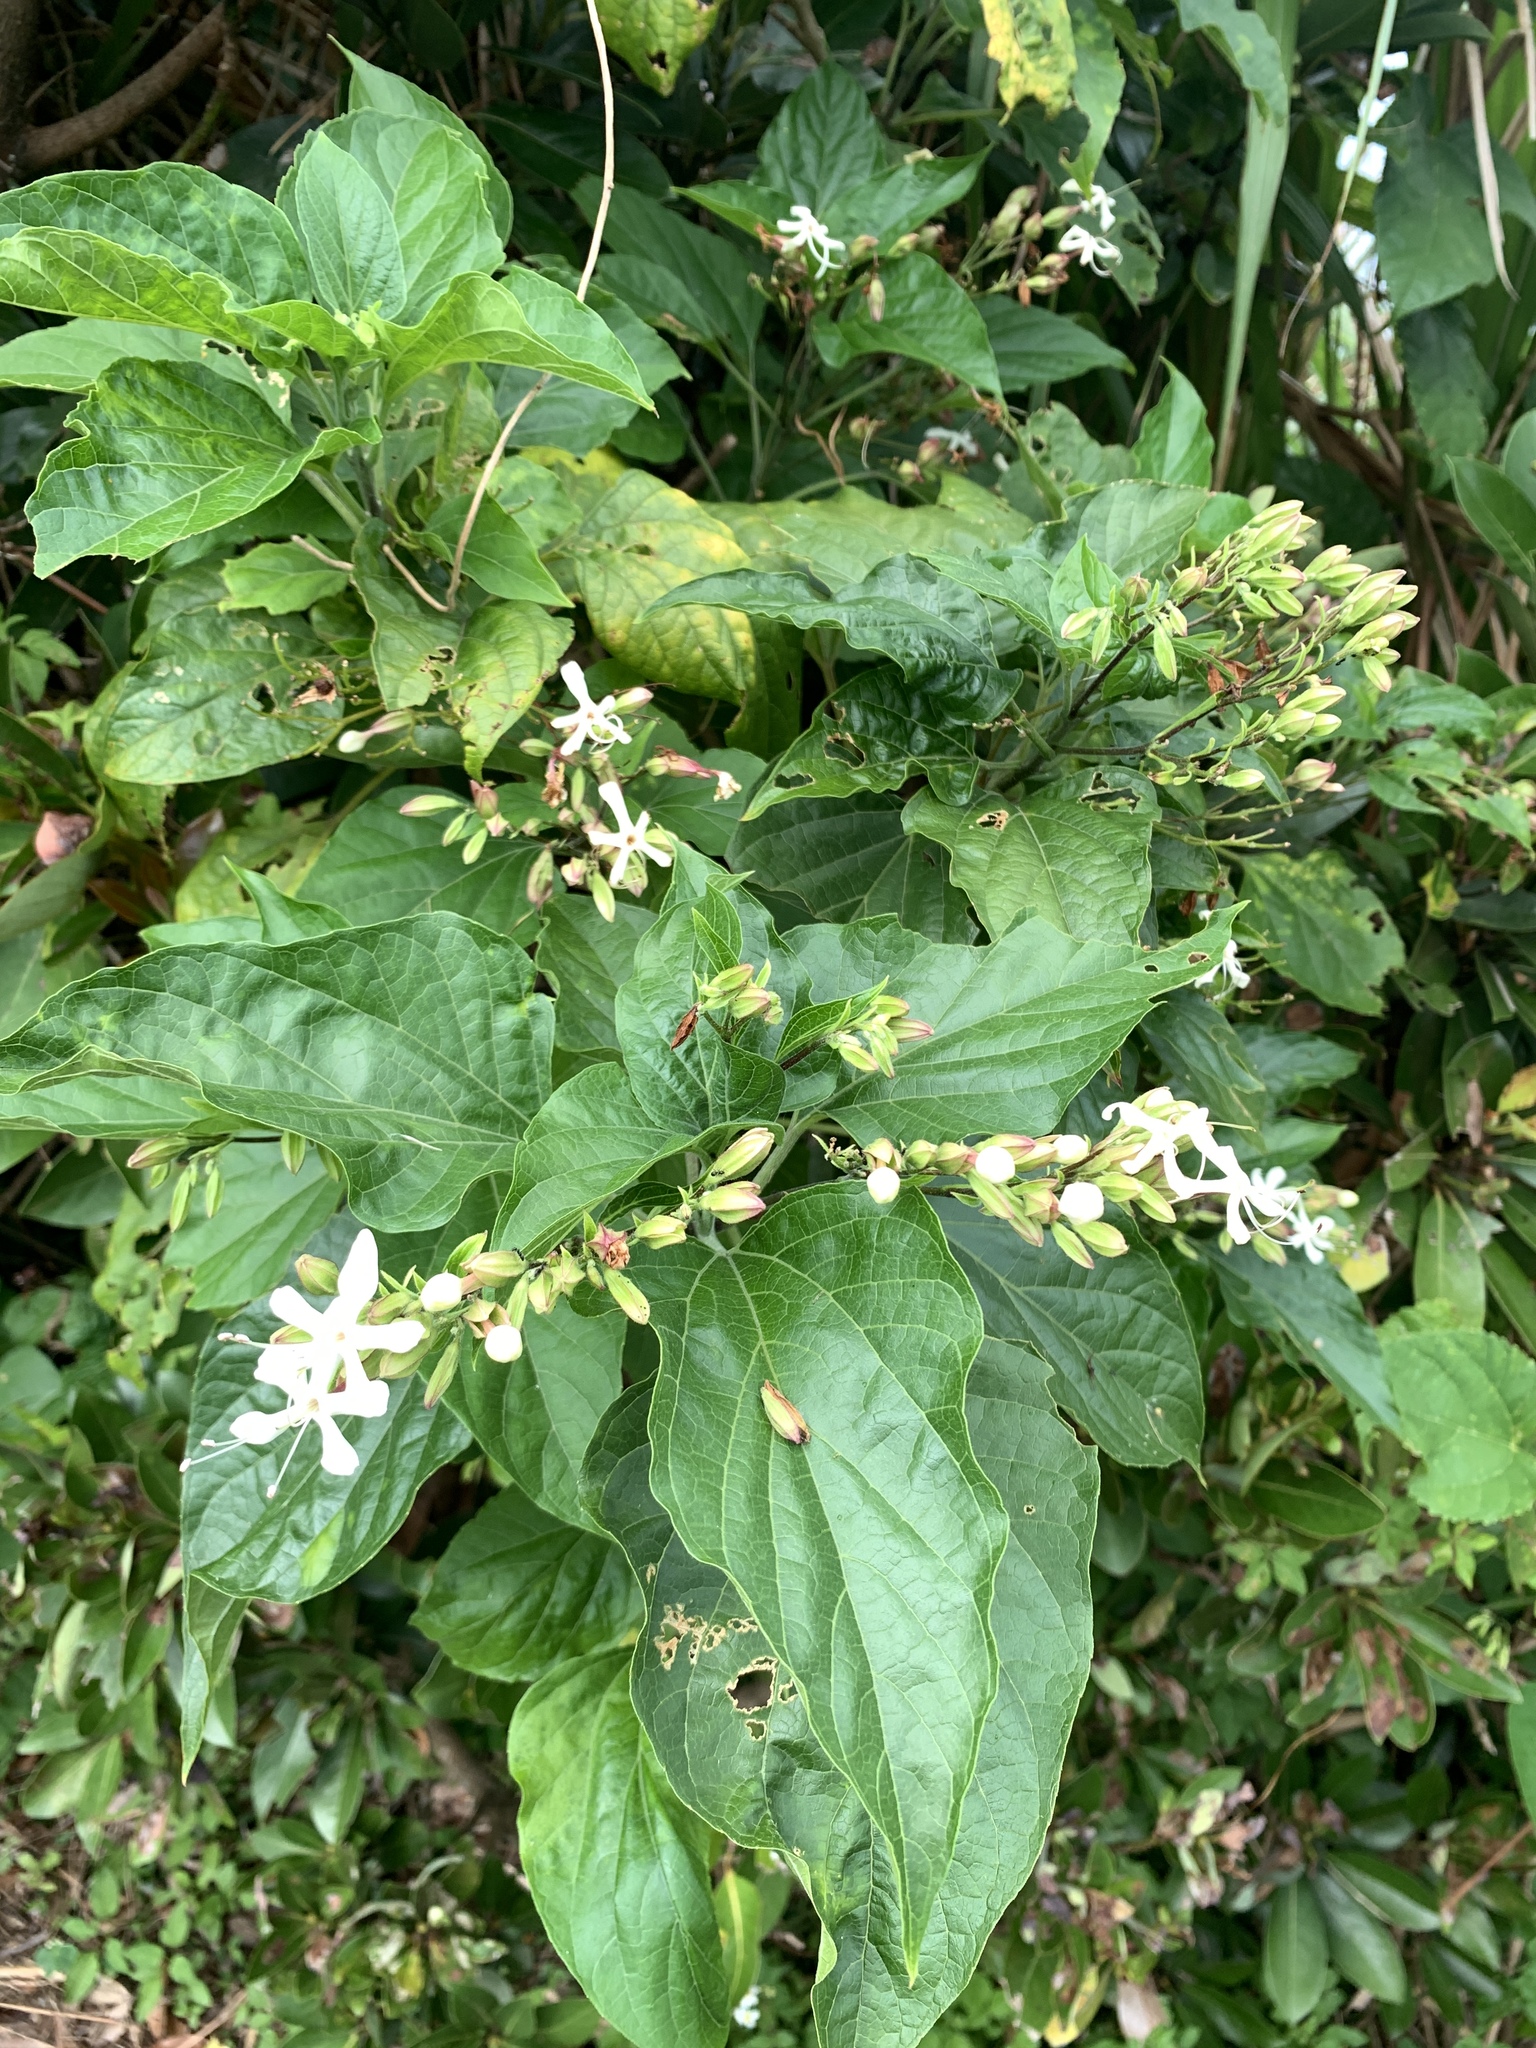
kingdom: Plantae
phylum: Tracheophyta
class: Magnoliopsida
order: Lamiales
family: Lamiaceae
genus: Clerodendrum
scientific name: Clerodendrum trichotomum
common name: Harlequin glorybower
